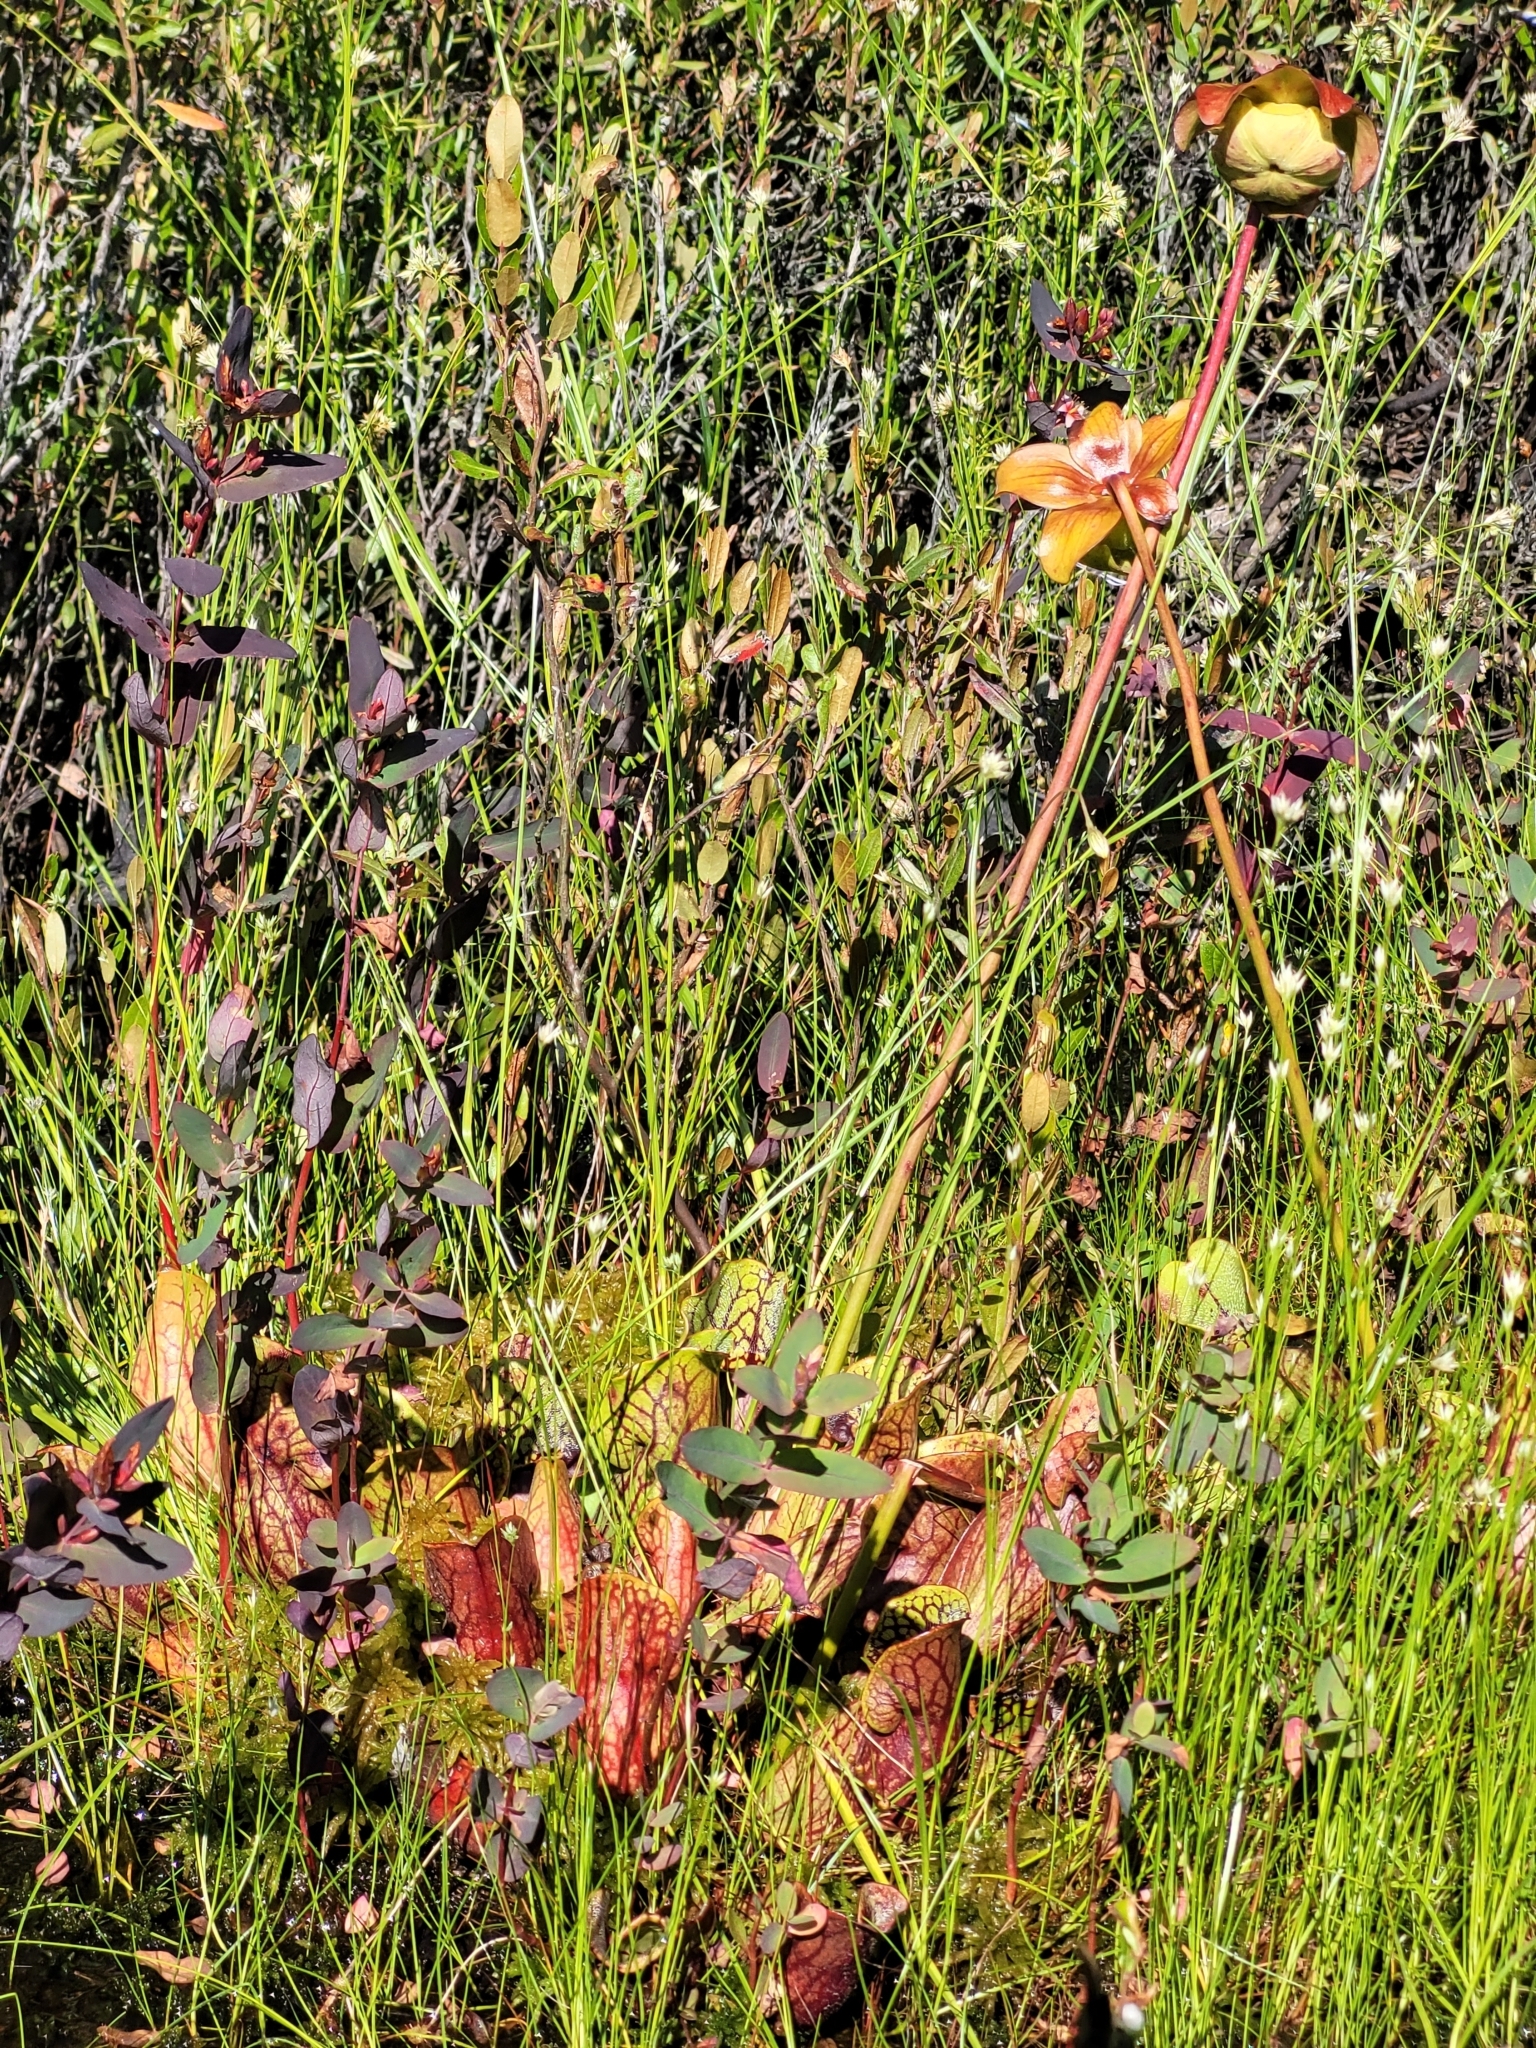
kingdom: Plantae
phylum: Tracheophyta
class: Magnoliopsida
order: Ericales
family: Sarraceniaceae
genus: Sarracenia
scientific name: Sarracenia purpurea
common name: Pitcherplant
